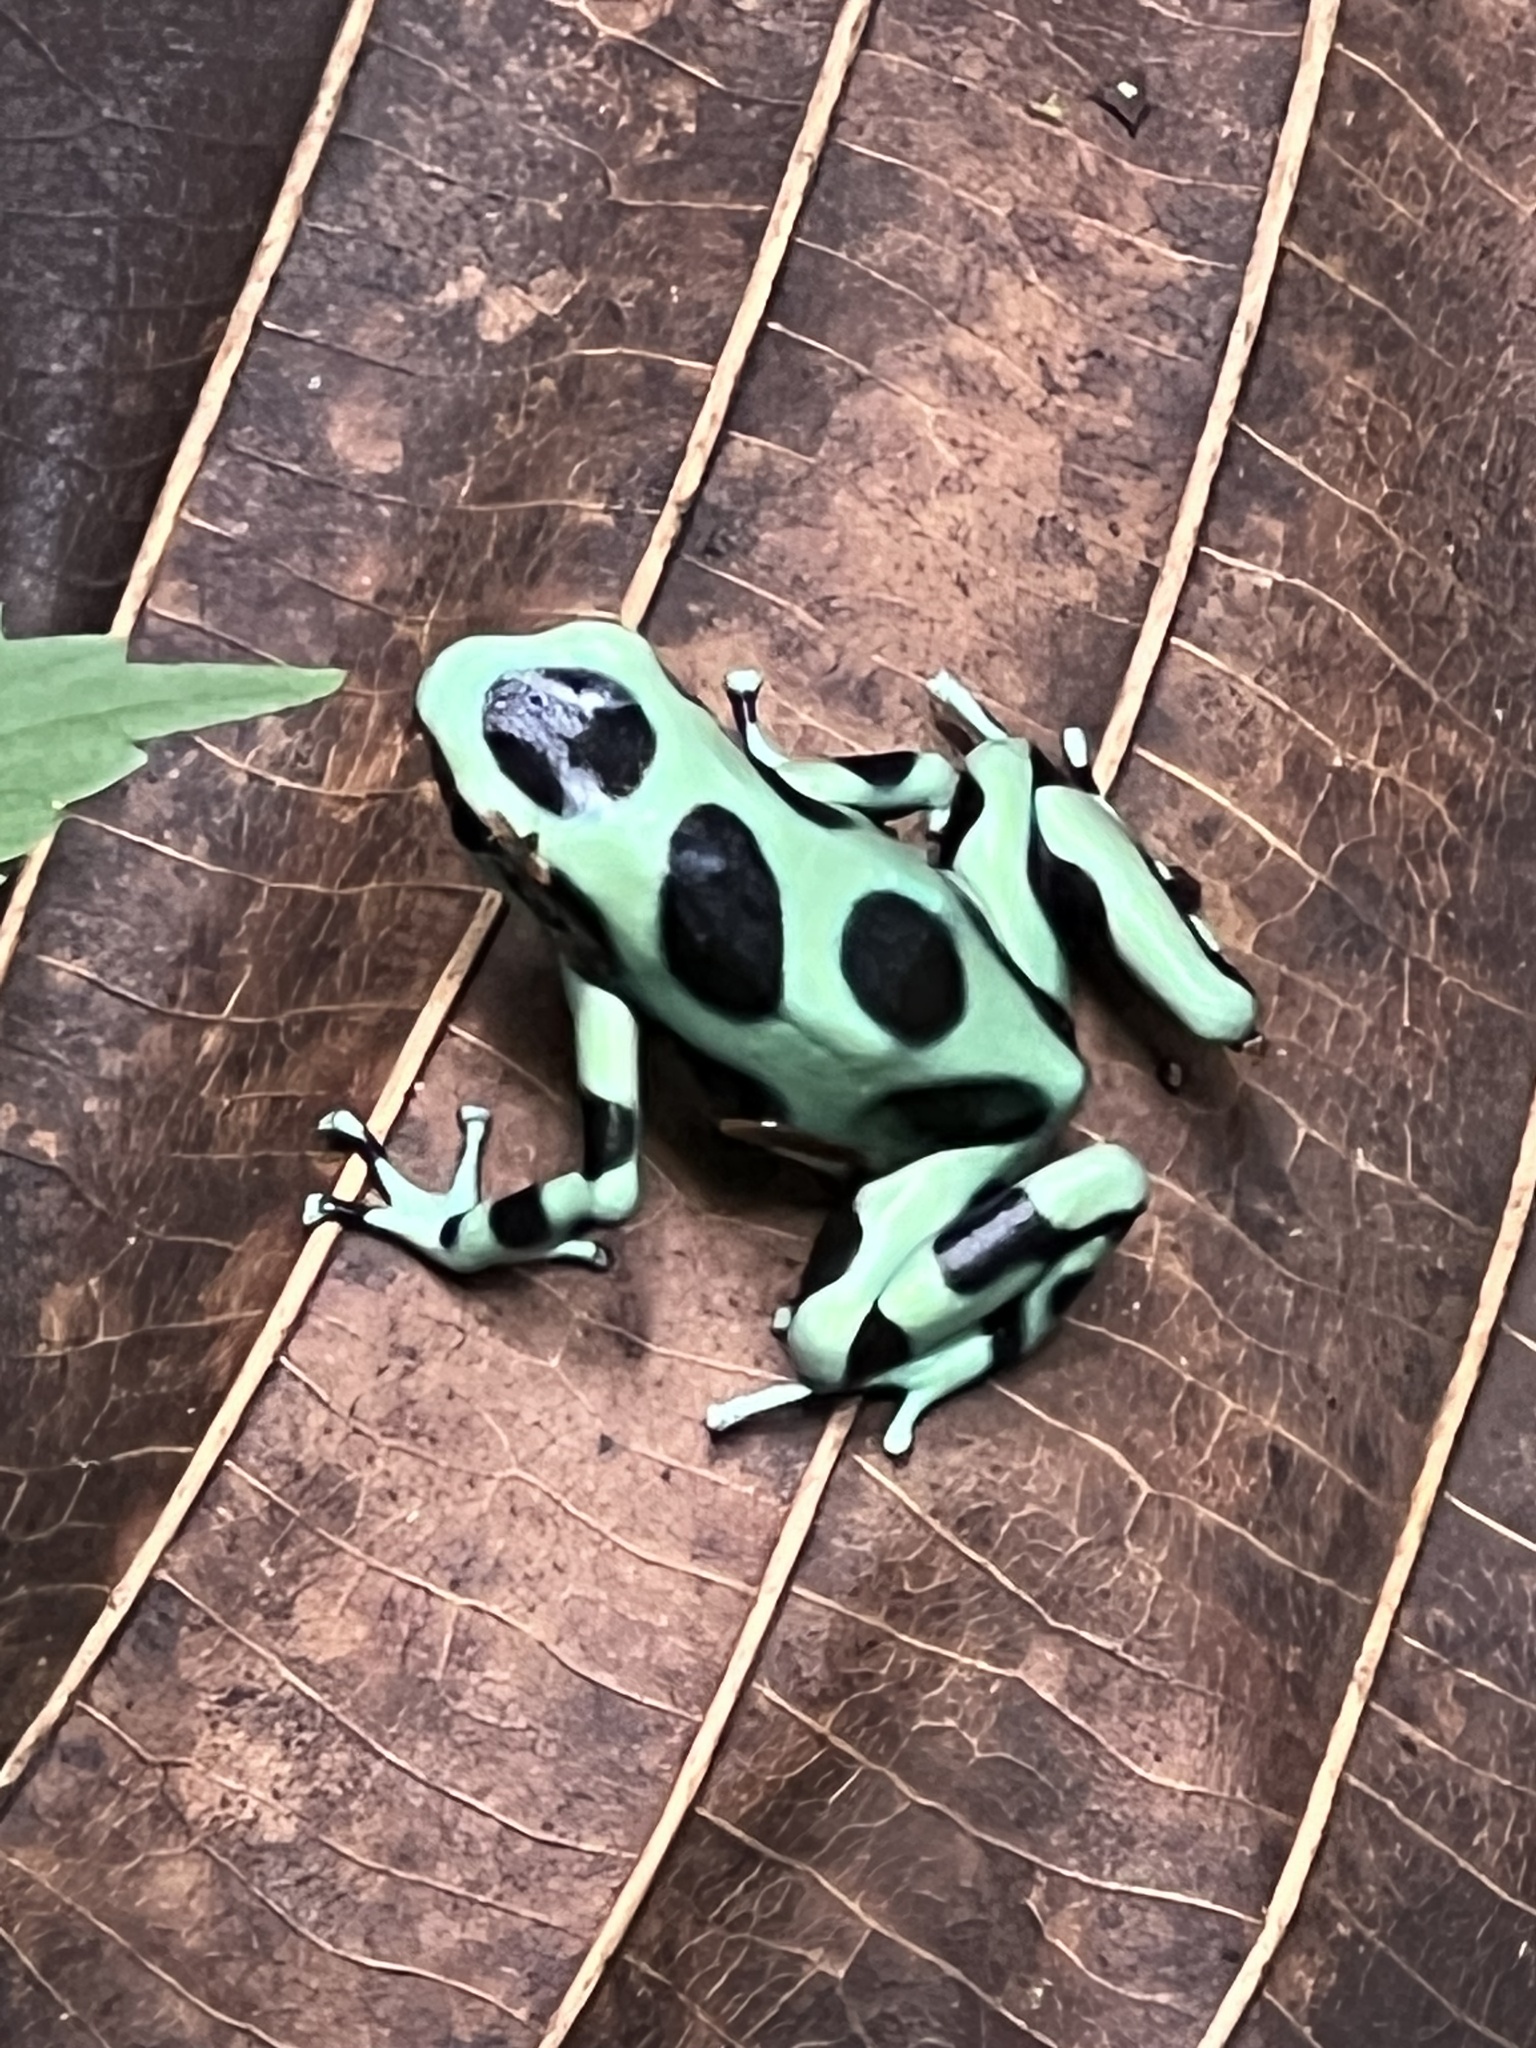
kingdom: Animalia
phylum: Chordata
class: Amphibia
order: Anura
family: Dendrobatidae
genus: Dendrobates
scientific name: Dendrobates auratus
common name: Green and black poison dart frog
